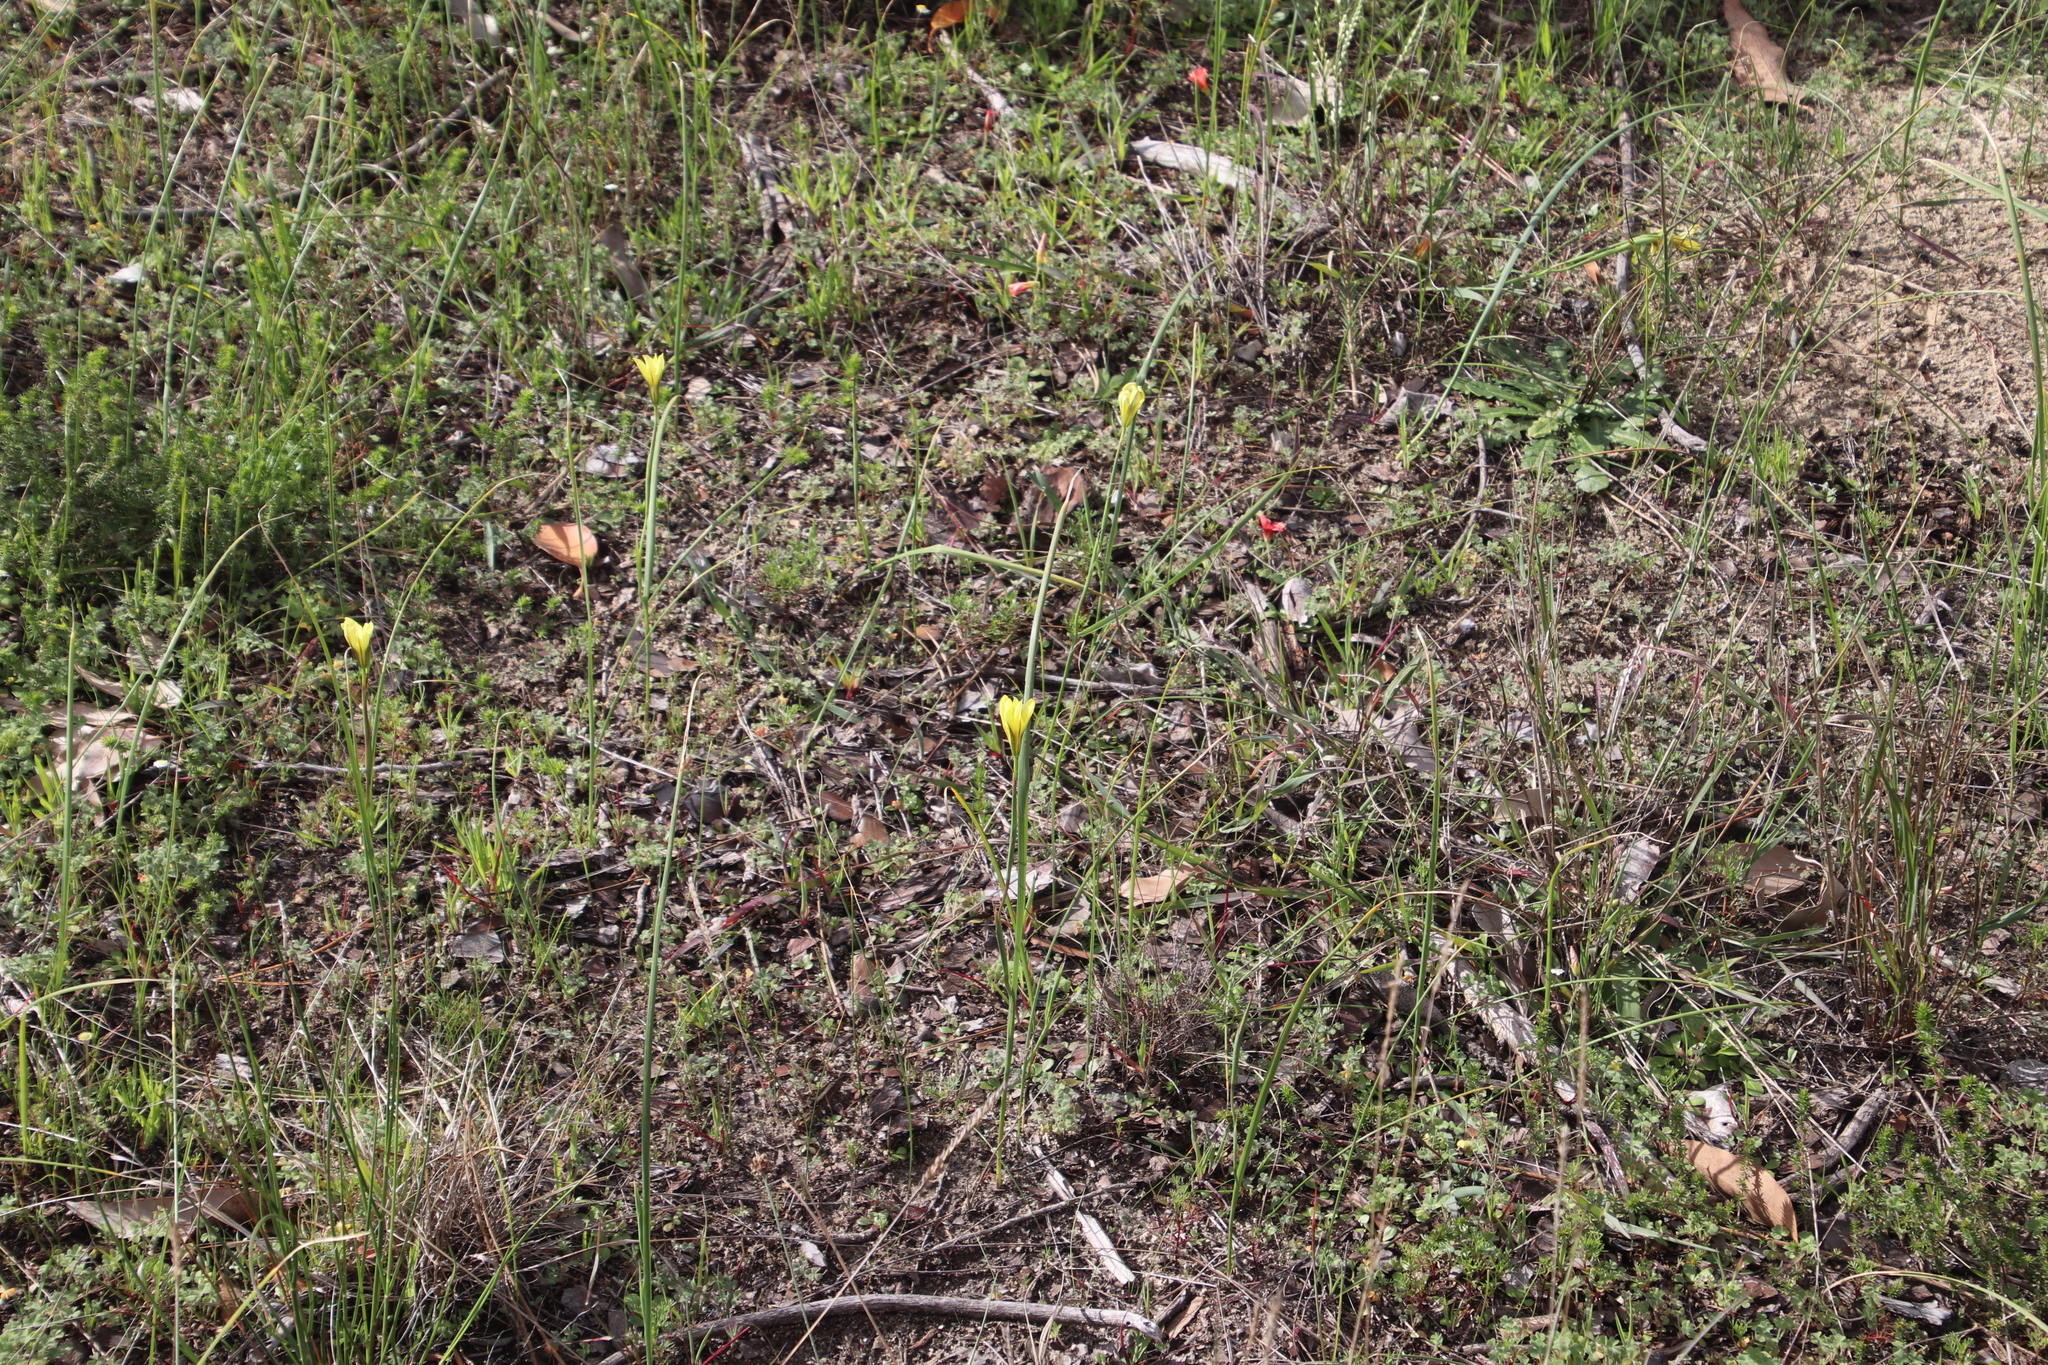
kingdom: Plantae
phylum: Tracheophyta
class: Liliopsida
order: Asparagales
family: Iridaceae
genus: Moraea
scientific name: Moraea collina
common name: Cape-tulip
